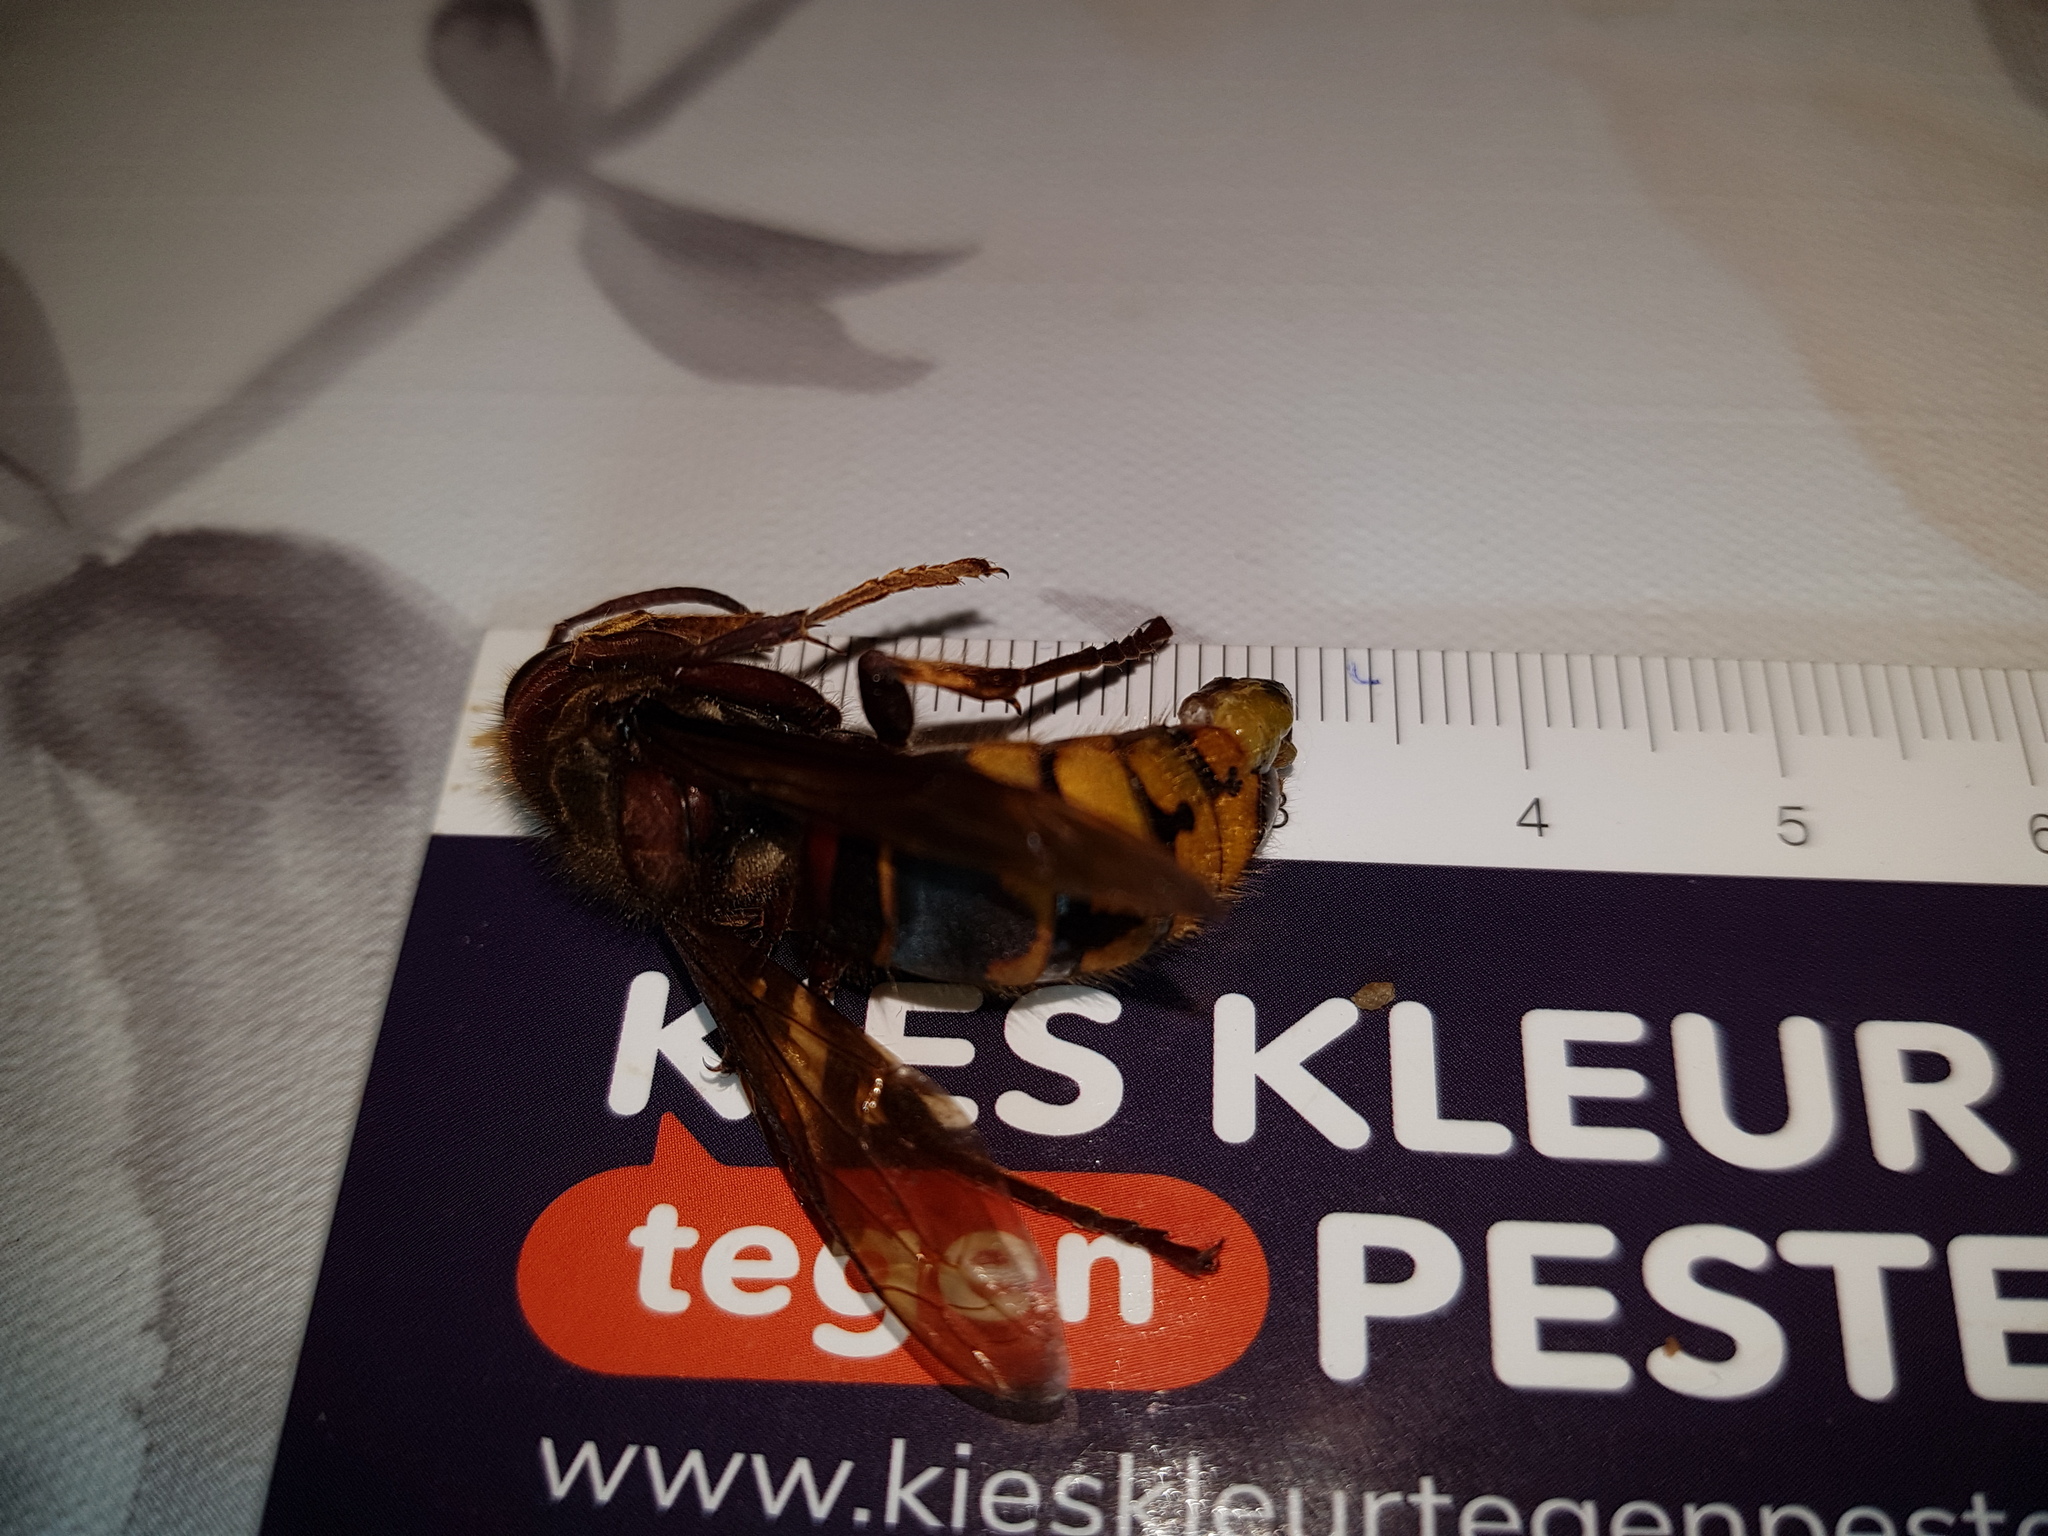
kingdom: Animalia
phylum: Arthropoda
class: Insecta
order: Hymenoptera
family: Vespidae
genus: Vespa
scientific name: Vespa crabro
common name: Hornet
